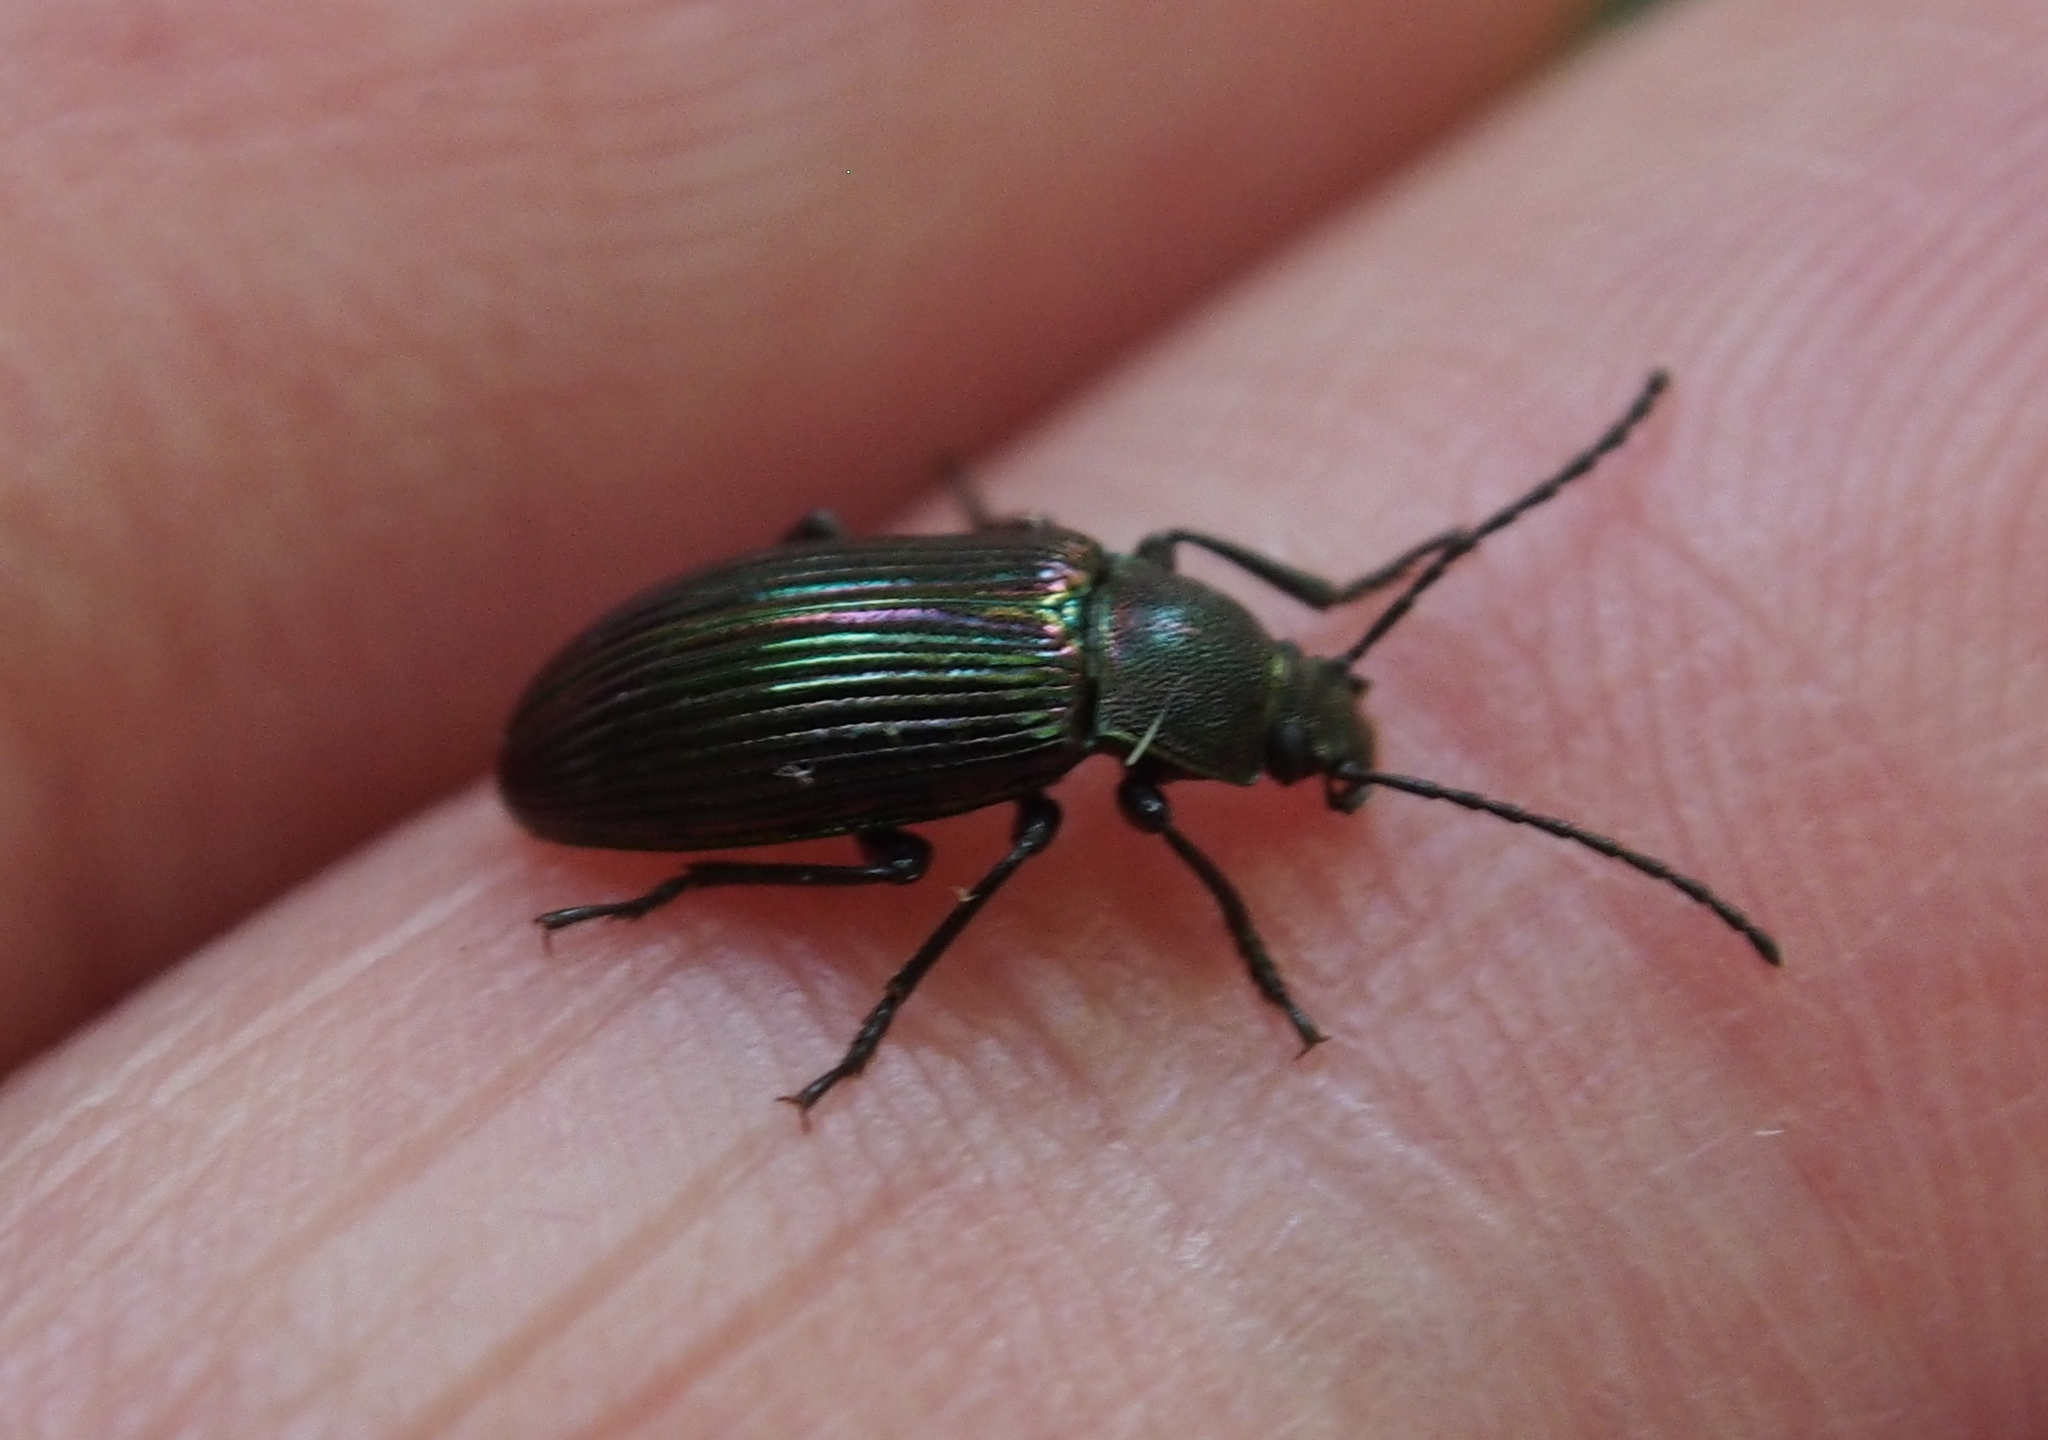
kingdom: Animalia
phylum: Arthropoda
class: Insecta
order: Coleoptera
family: Tenebrionidae
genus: Tarpela
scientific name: Tarpela venusta
